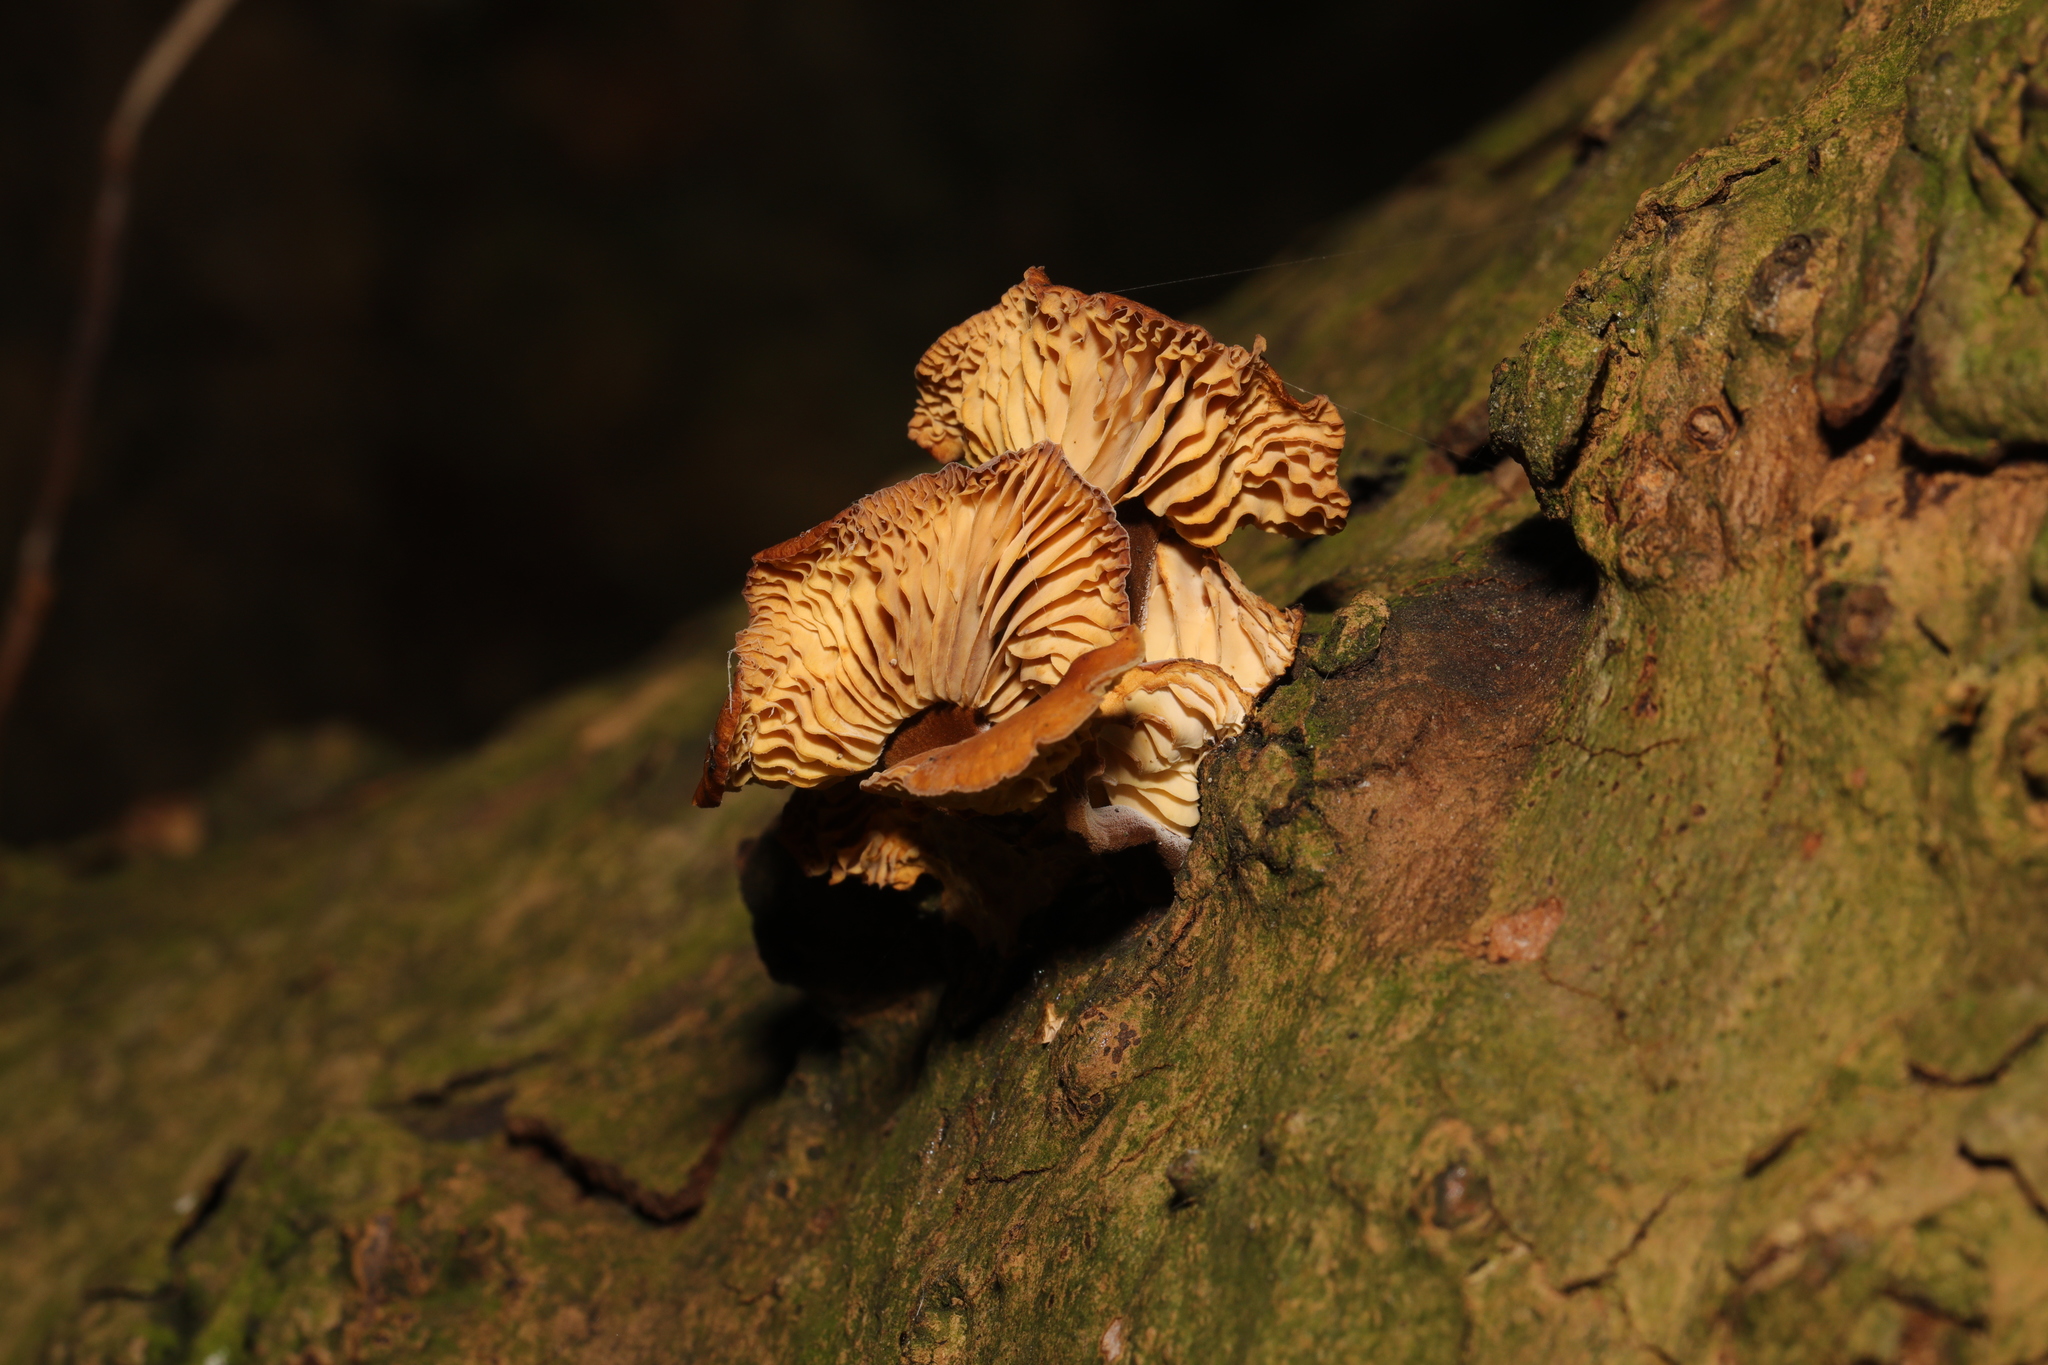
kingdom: Fungi
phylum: Basidiomycota
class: Agaricomycetes
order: Agaricales
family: Physalacriaceae
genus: Flammulina
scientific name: Flammulina
